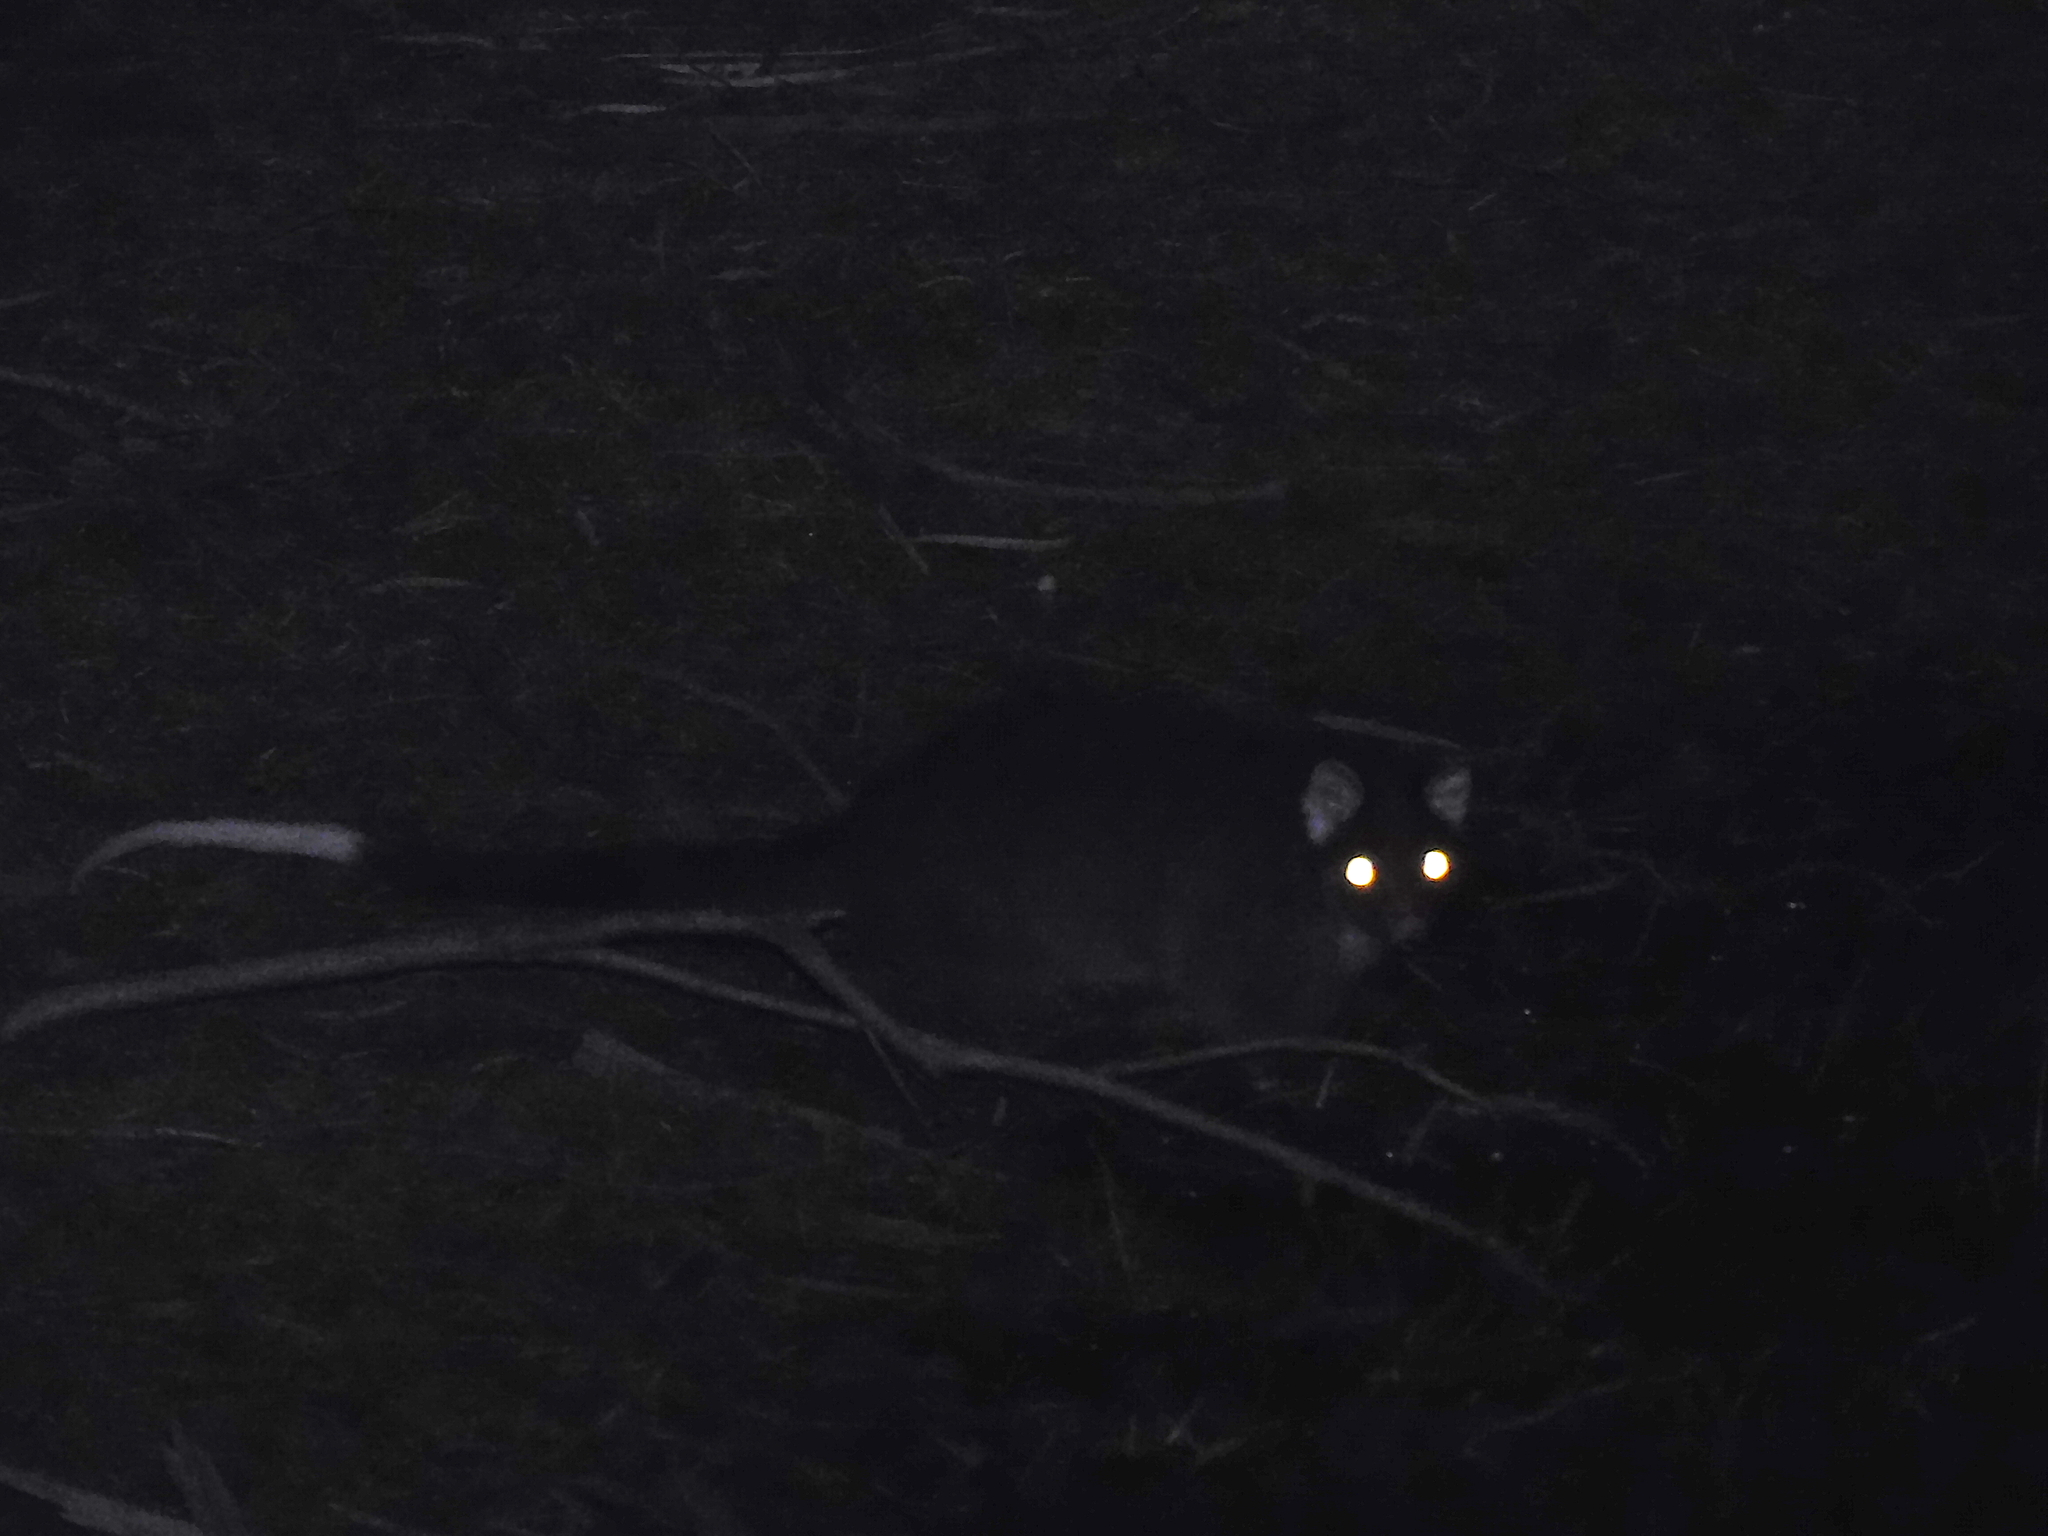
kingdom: Animalia
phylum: Chordata
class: Mammalia
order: Diprotodontia
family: Pseudocheiridae
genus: Pseudocheirus
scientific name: Pseudocheirus peregrinus
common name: Common ringtail possum
